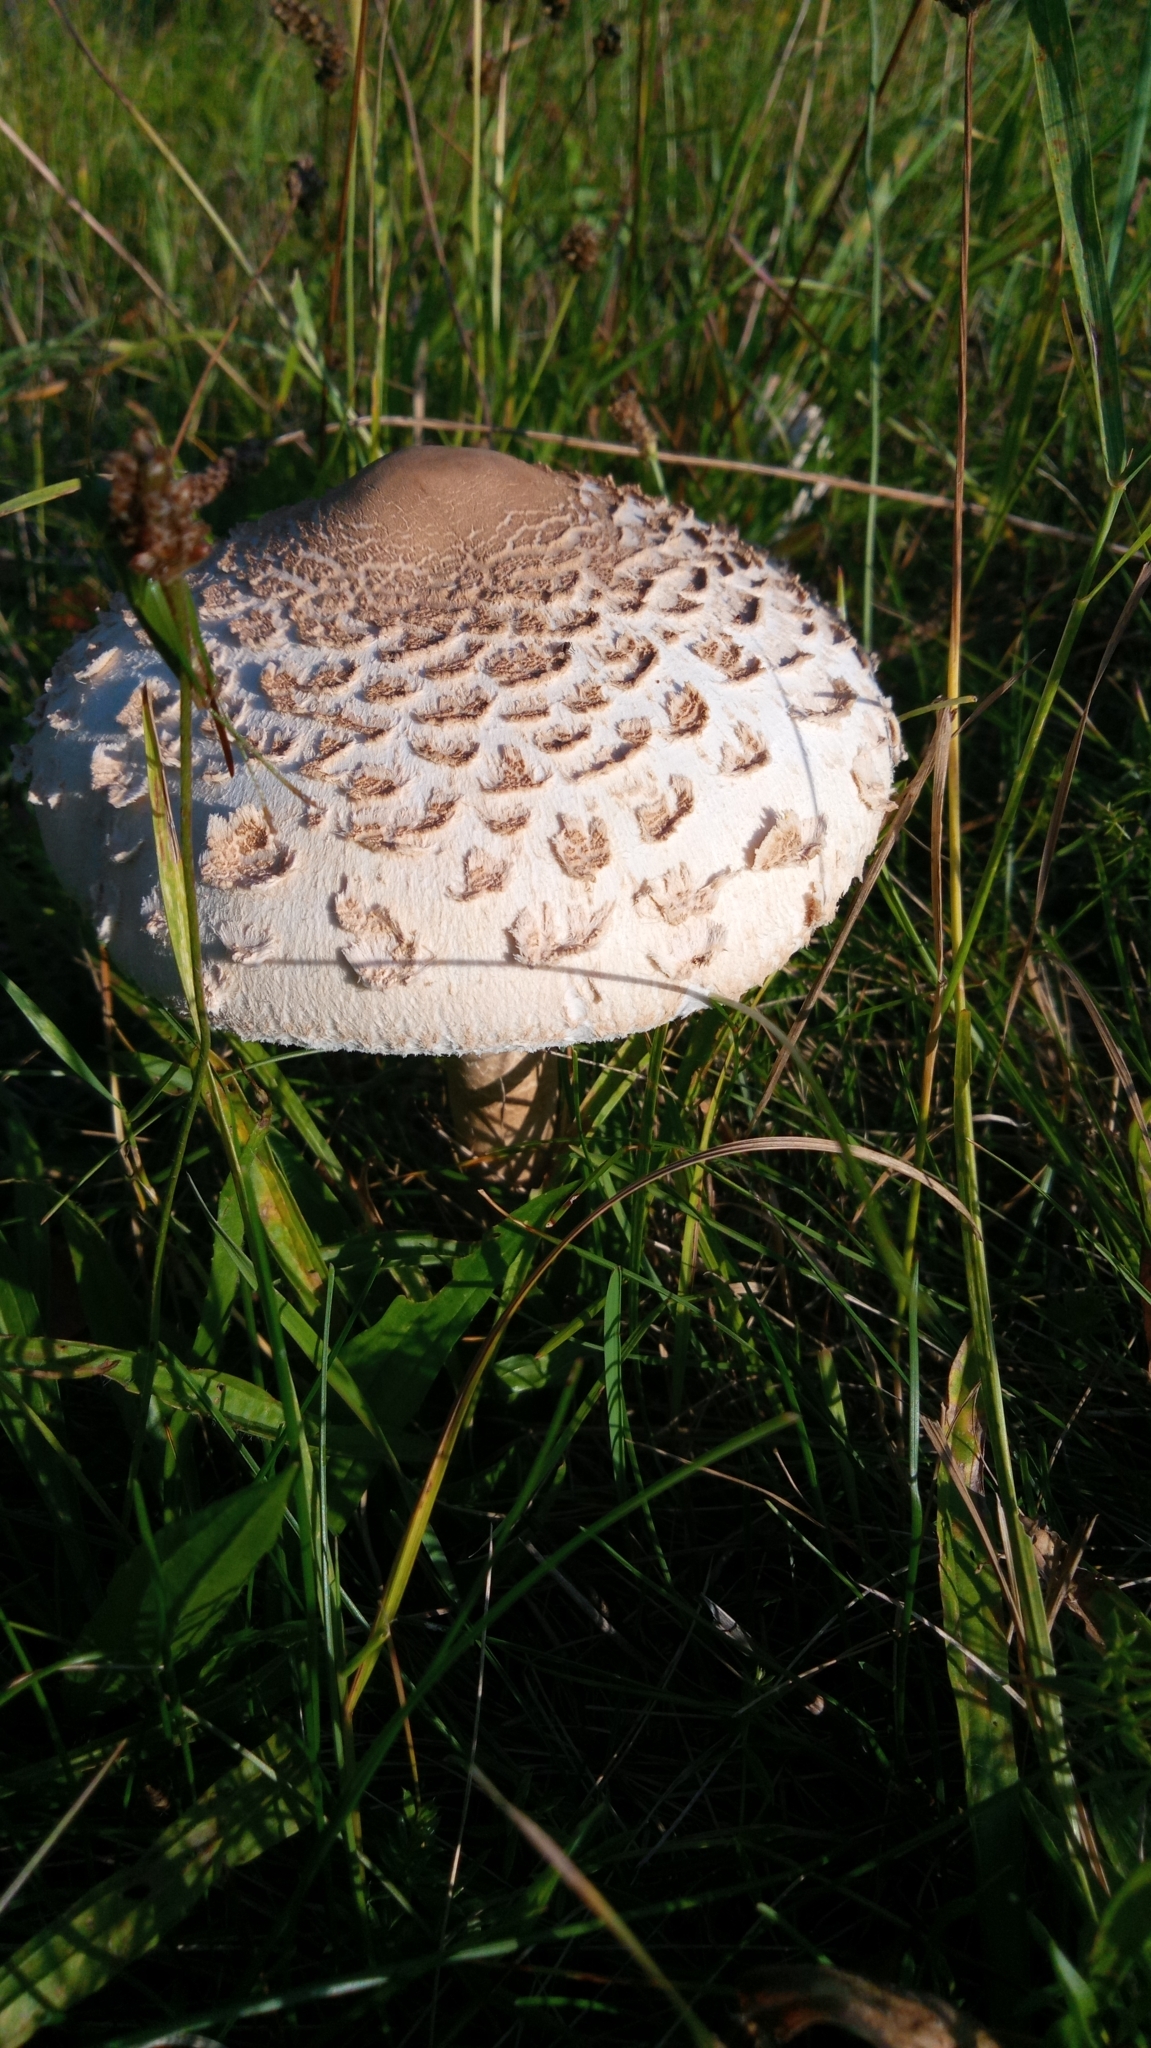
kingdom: Fungi
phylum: Basidiomycota
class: Agaricomycetes
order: Agaricales
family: Agaricaceae
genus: Macrolepiota
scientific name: Macrolepiota procera
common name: Parasol
